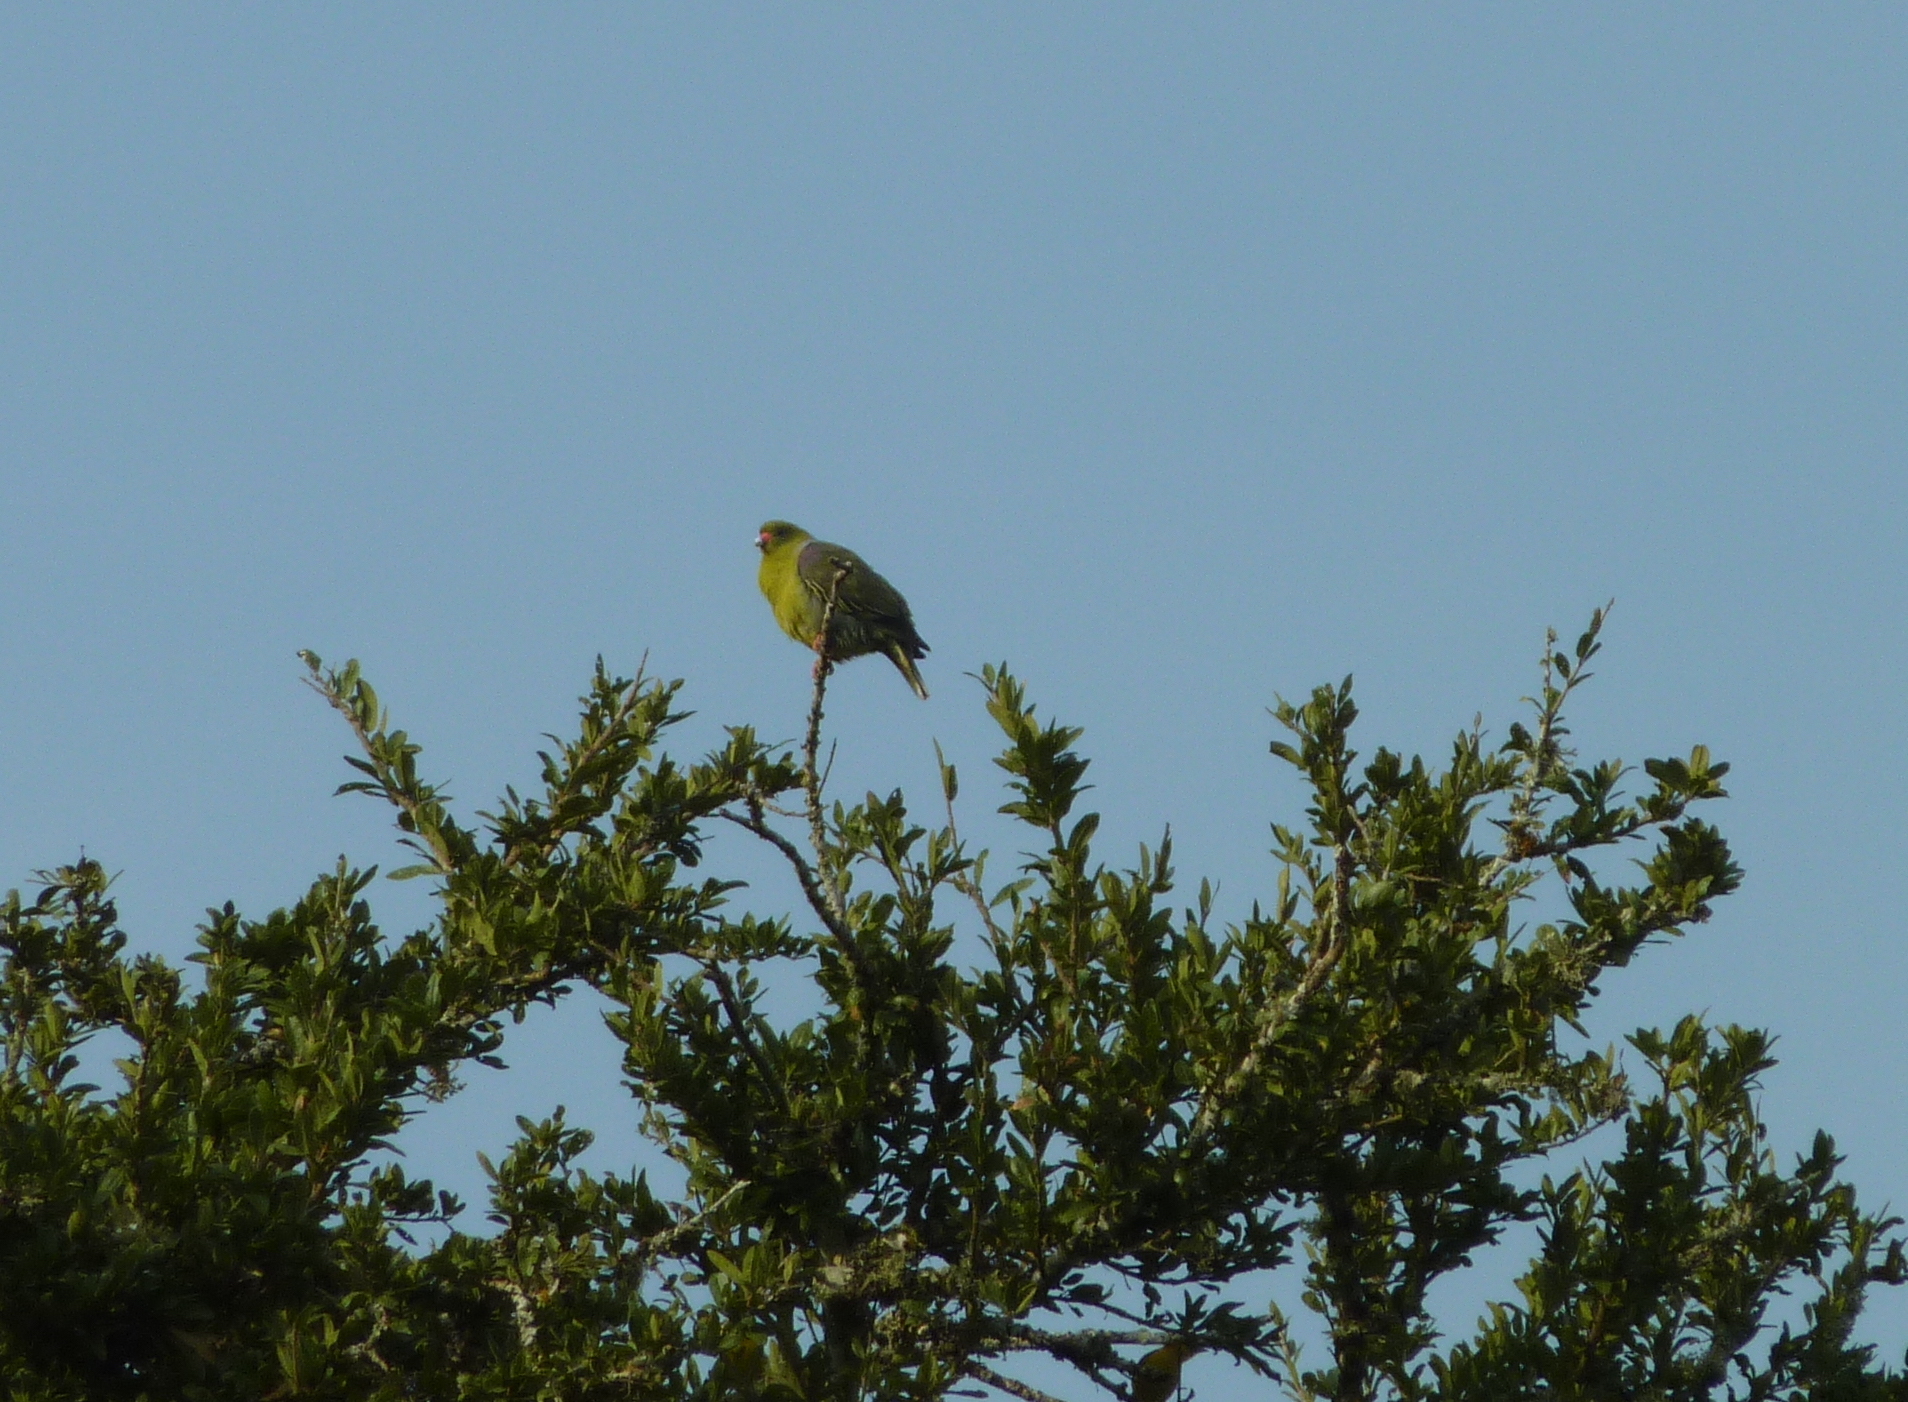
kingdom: Animalia
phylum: Chordata
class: Aves
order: Columbiformes
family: Columbidae
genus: Treron
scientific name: Treron calvus
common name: African green pigeon
